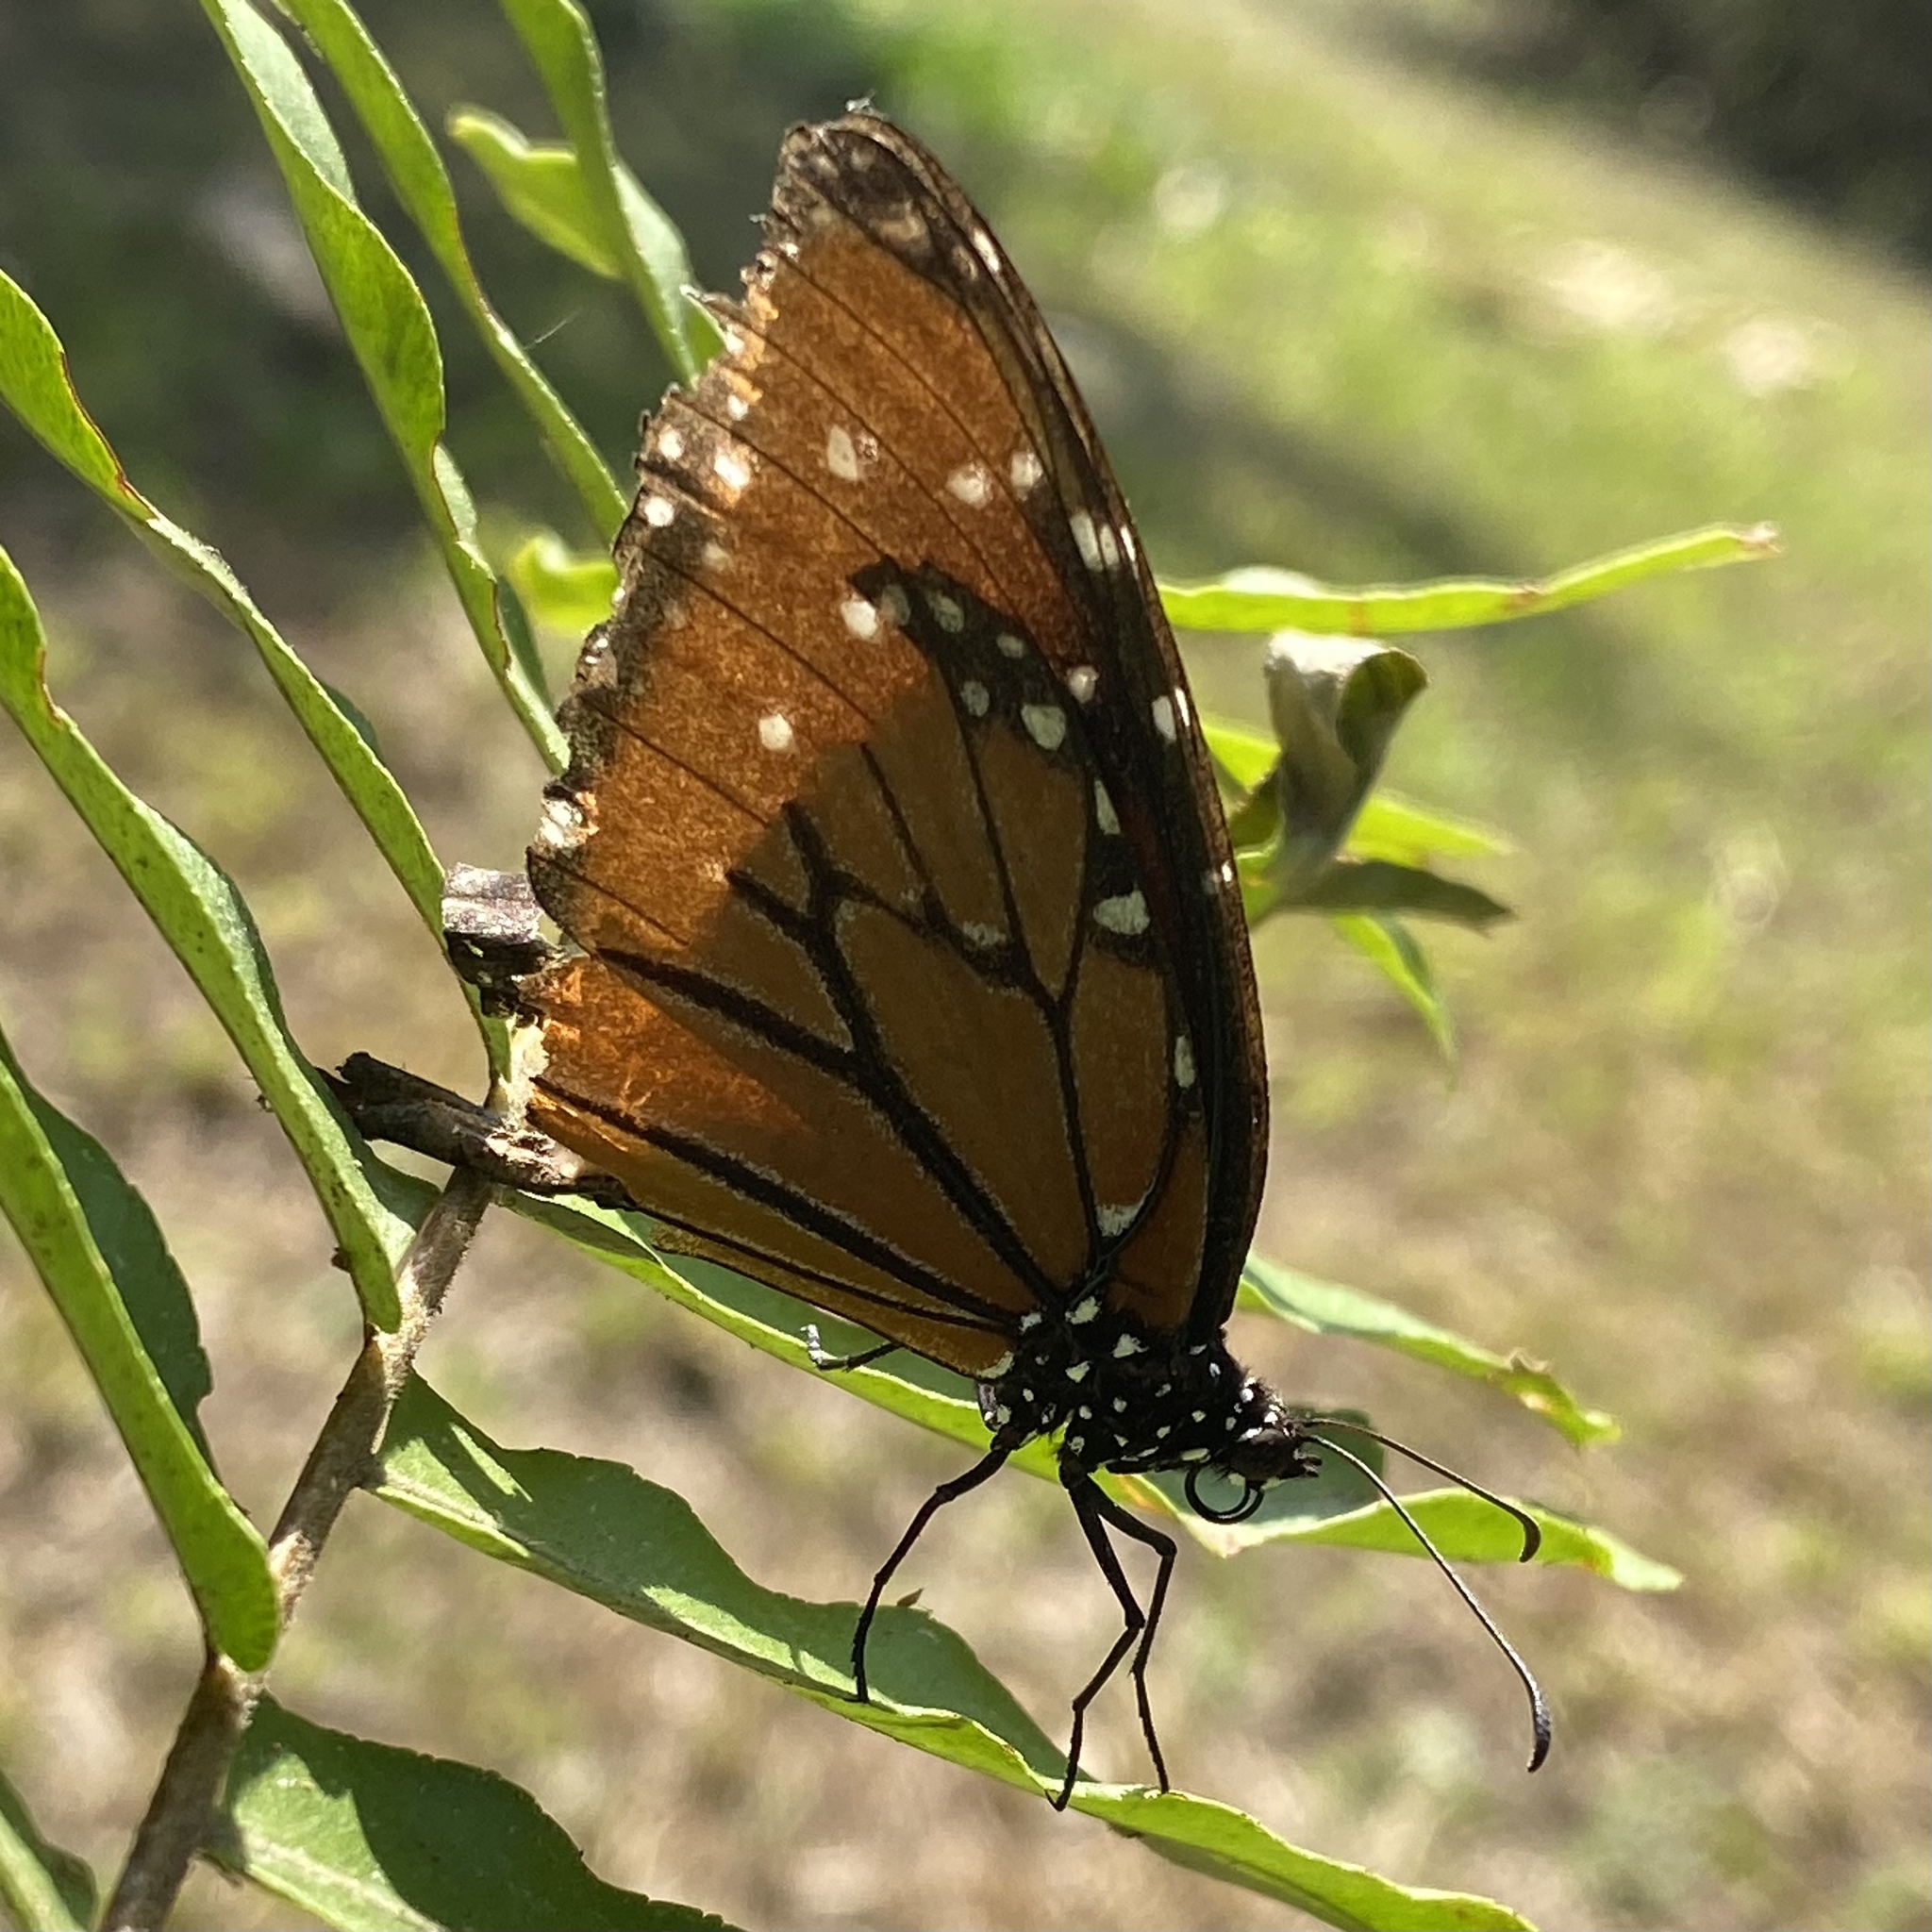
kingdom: Animalia
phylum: Arthropoda
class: Insecta
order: Lepidoptera
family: Nymphalidae
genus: Danaus
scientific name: Danaus gilippus
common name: Queen
